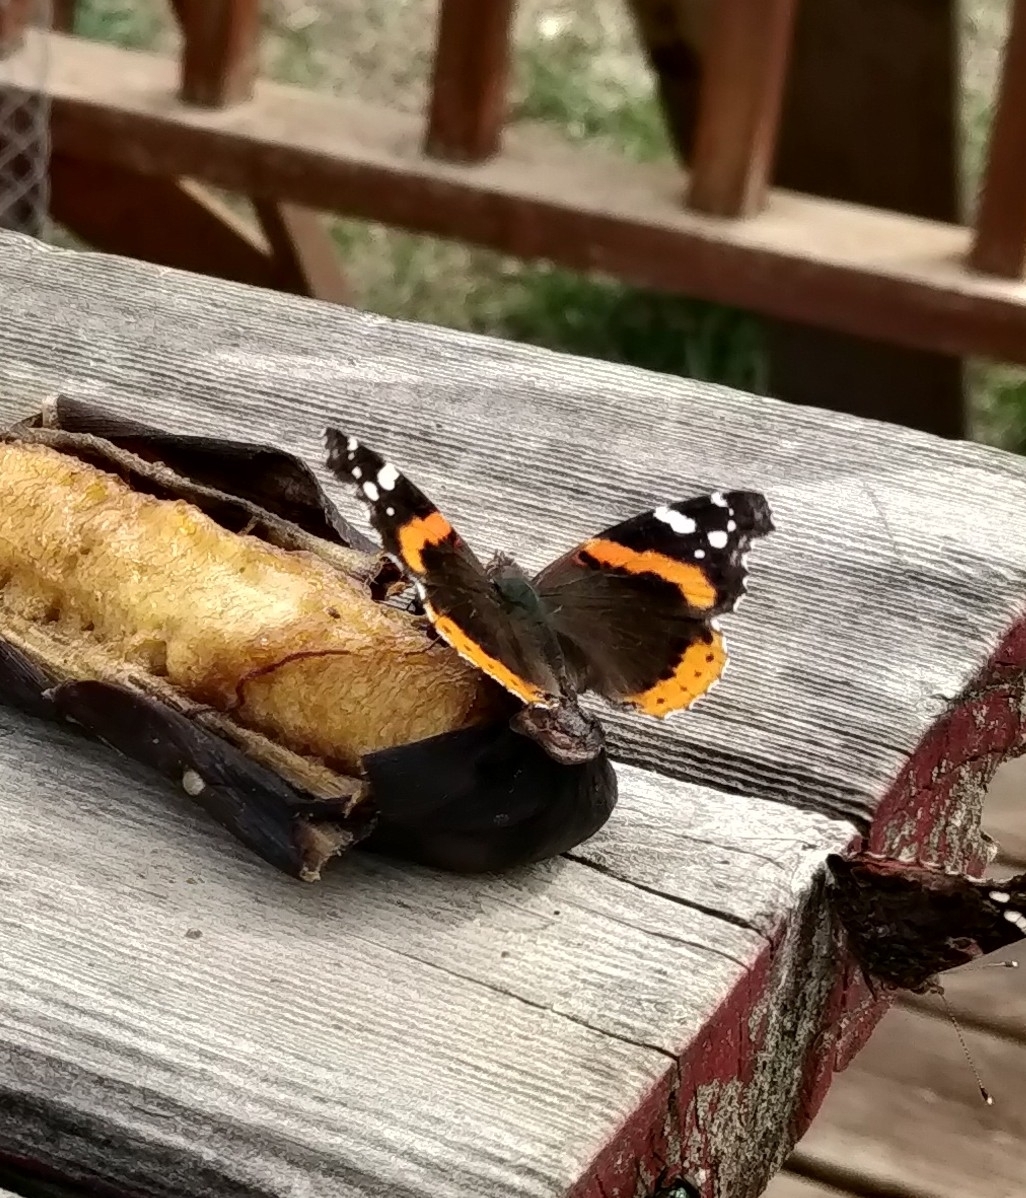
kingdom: Animalia
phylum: Arthropoda
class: Insecta
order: Lepidoptera
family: Nymphalidae
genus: Vanessa
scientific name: Vanessa atalanta
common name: Red admiral
